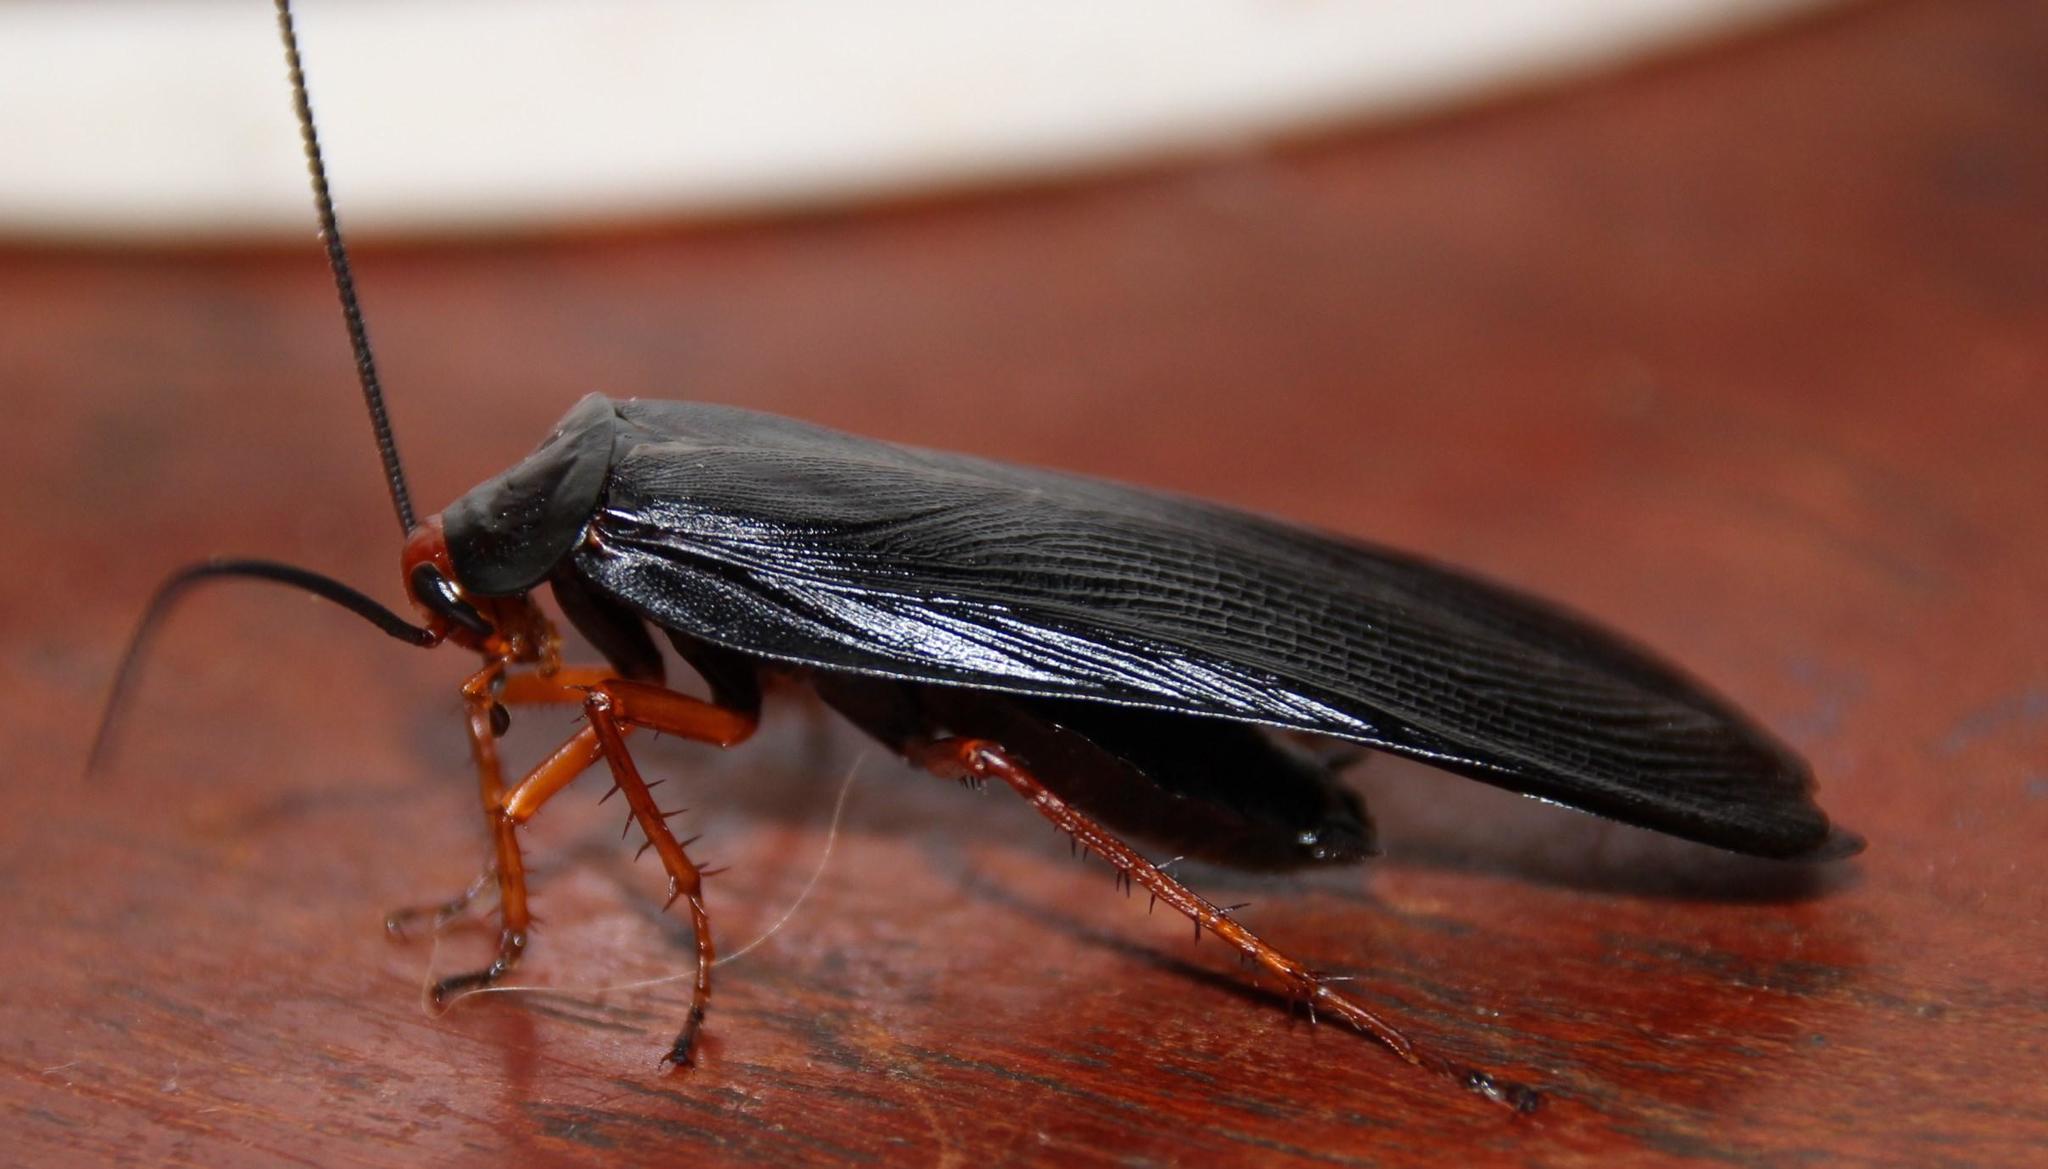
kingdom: Animalia
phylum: Arthropoda
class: Insecta
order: Blattodea
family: Blattidae
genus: Deropeltis
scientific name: Deropeltis erythrocephala
